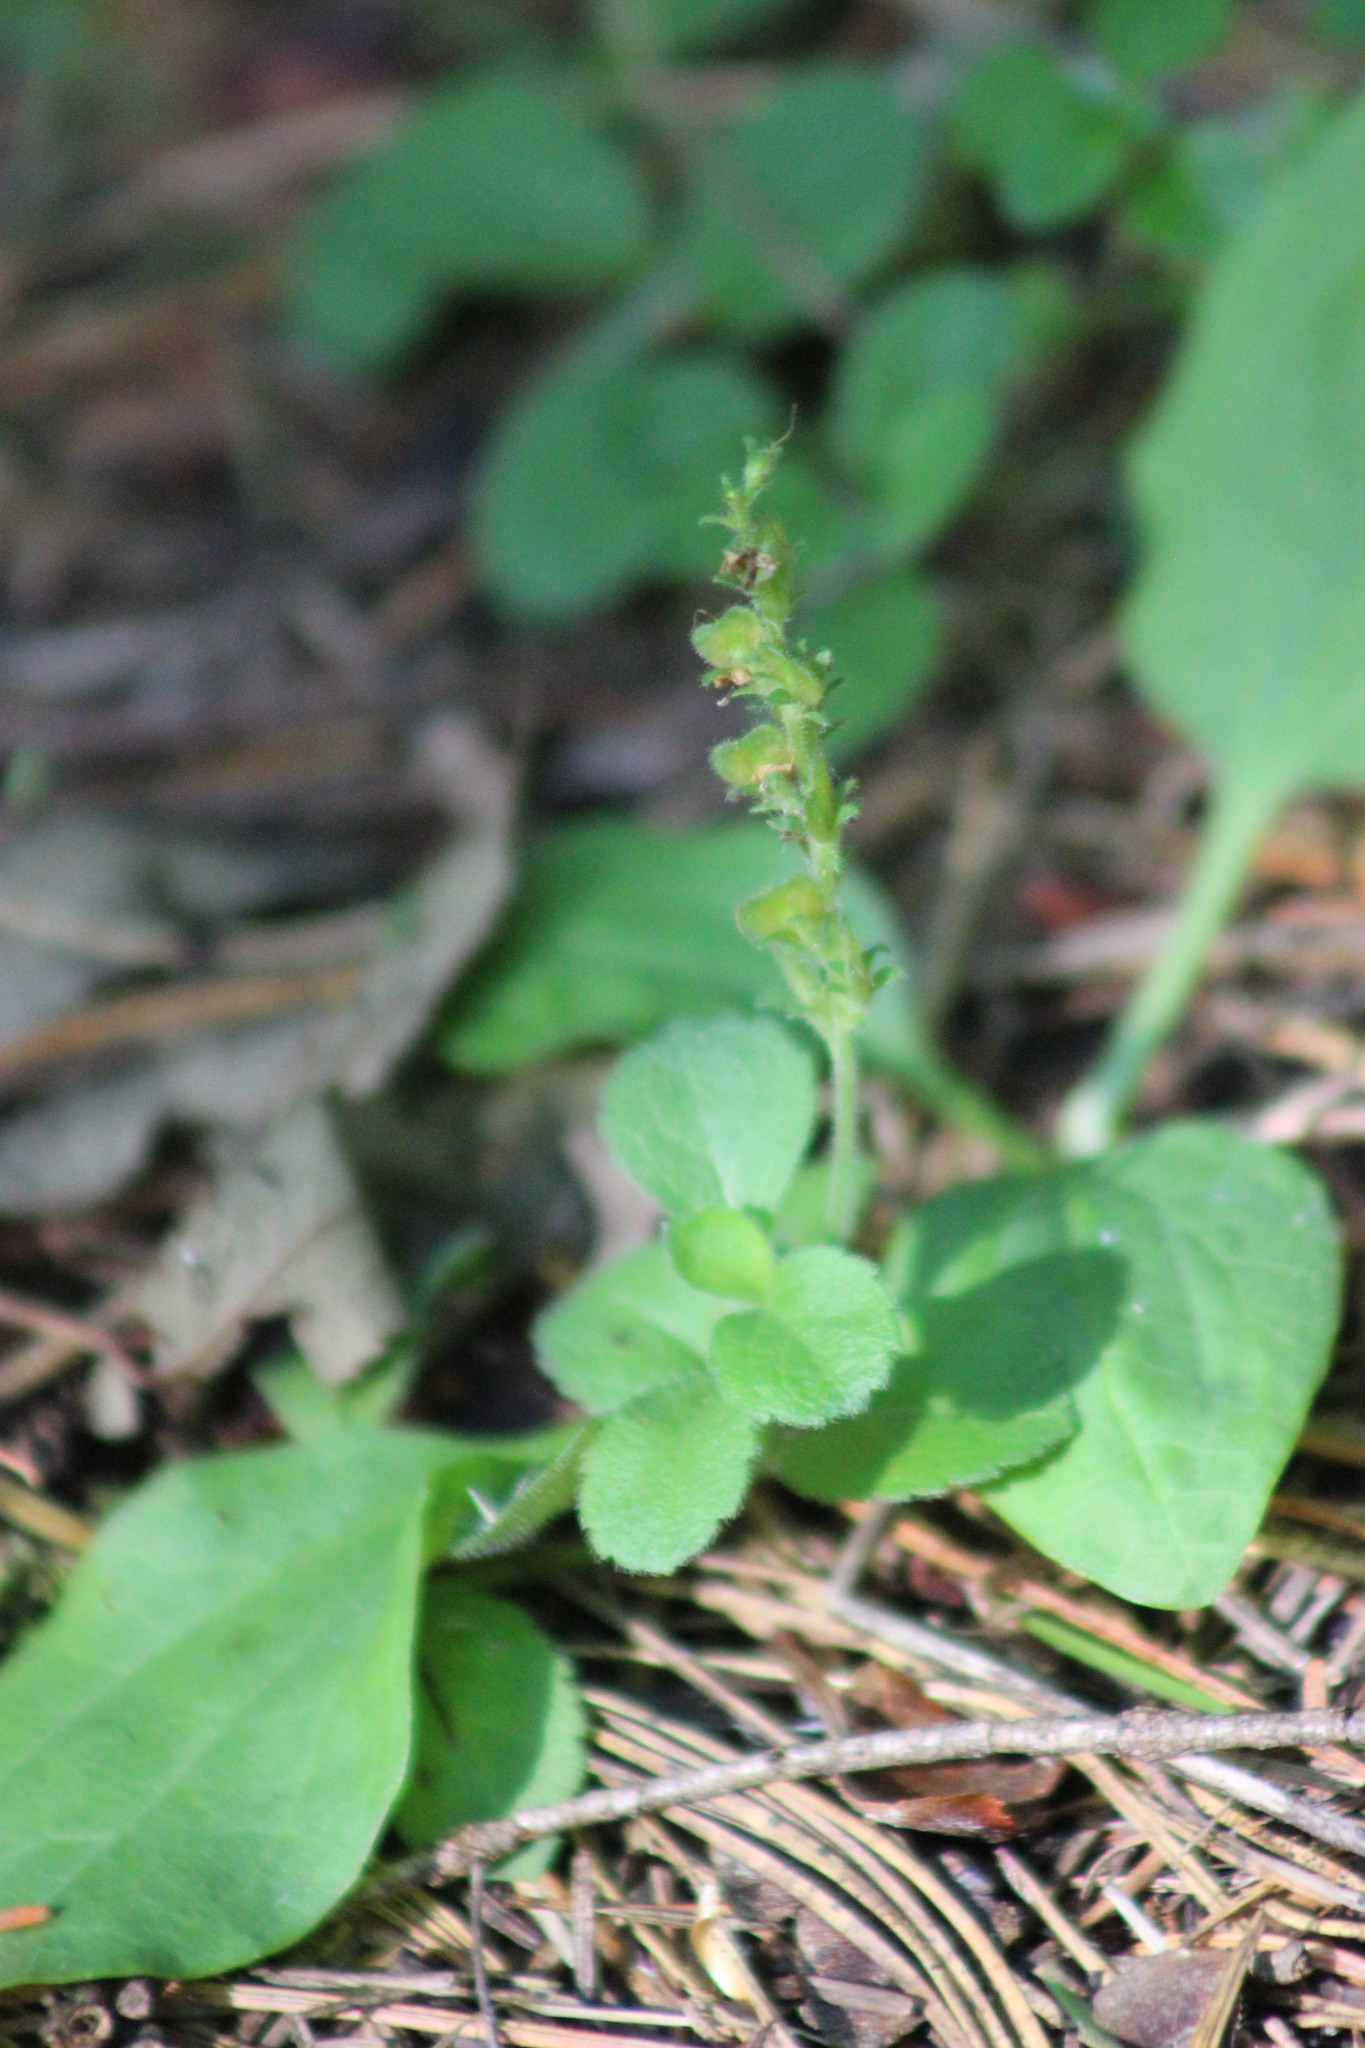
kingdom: Plantae
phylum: Tracheophyta
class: Magnoliopsida
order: Lamiales
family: Plantaginaceae
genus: Veronica
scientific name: Veronica officinalis
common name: Common speedwell
